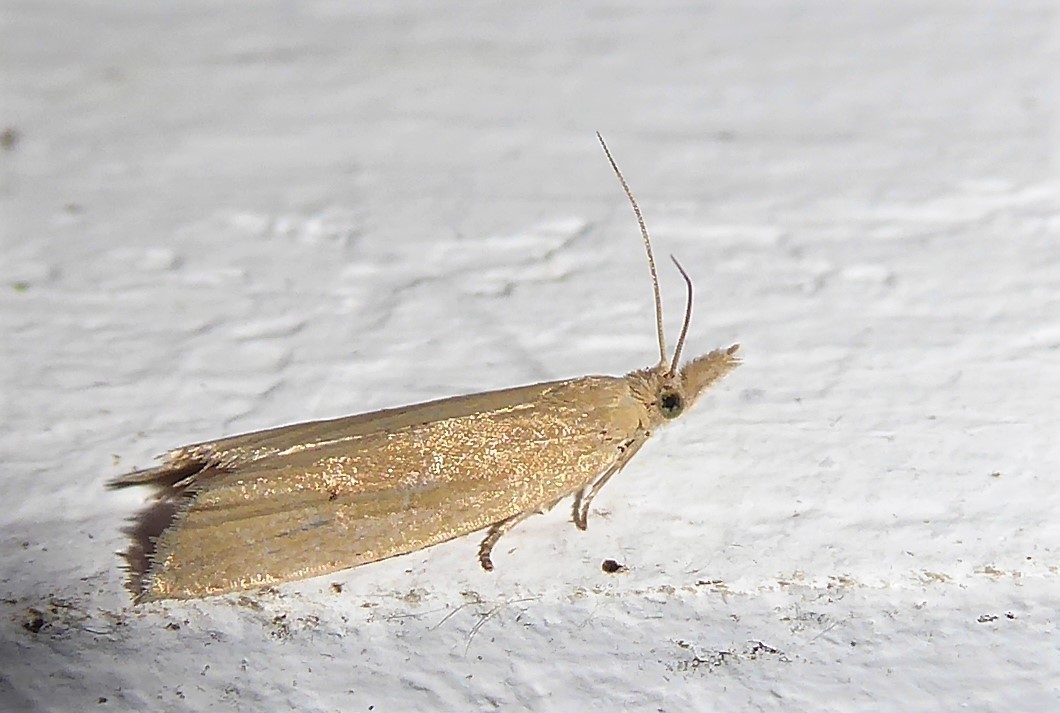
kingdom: Animalia
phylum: Arthropoda
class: Insecta
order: Lepidoptera
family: Tortricidae
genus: Bactra
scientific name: Bactra noteraula
